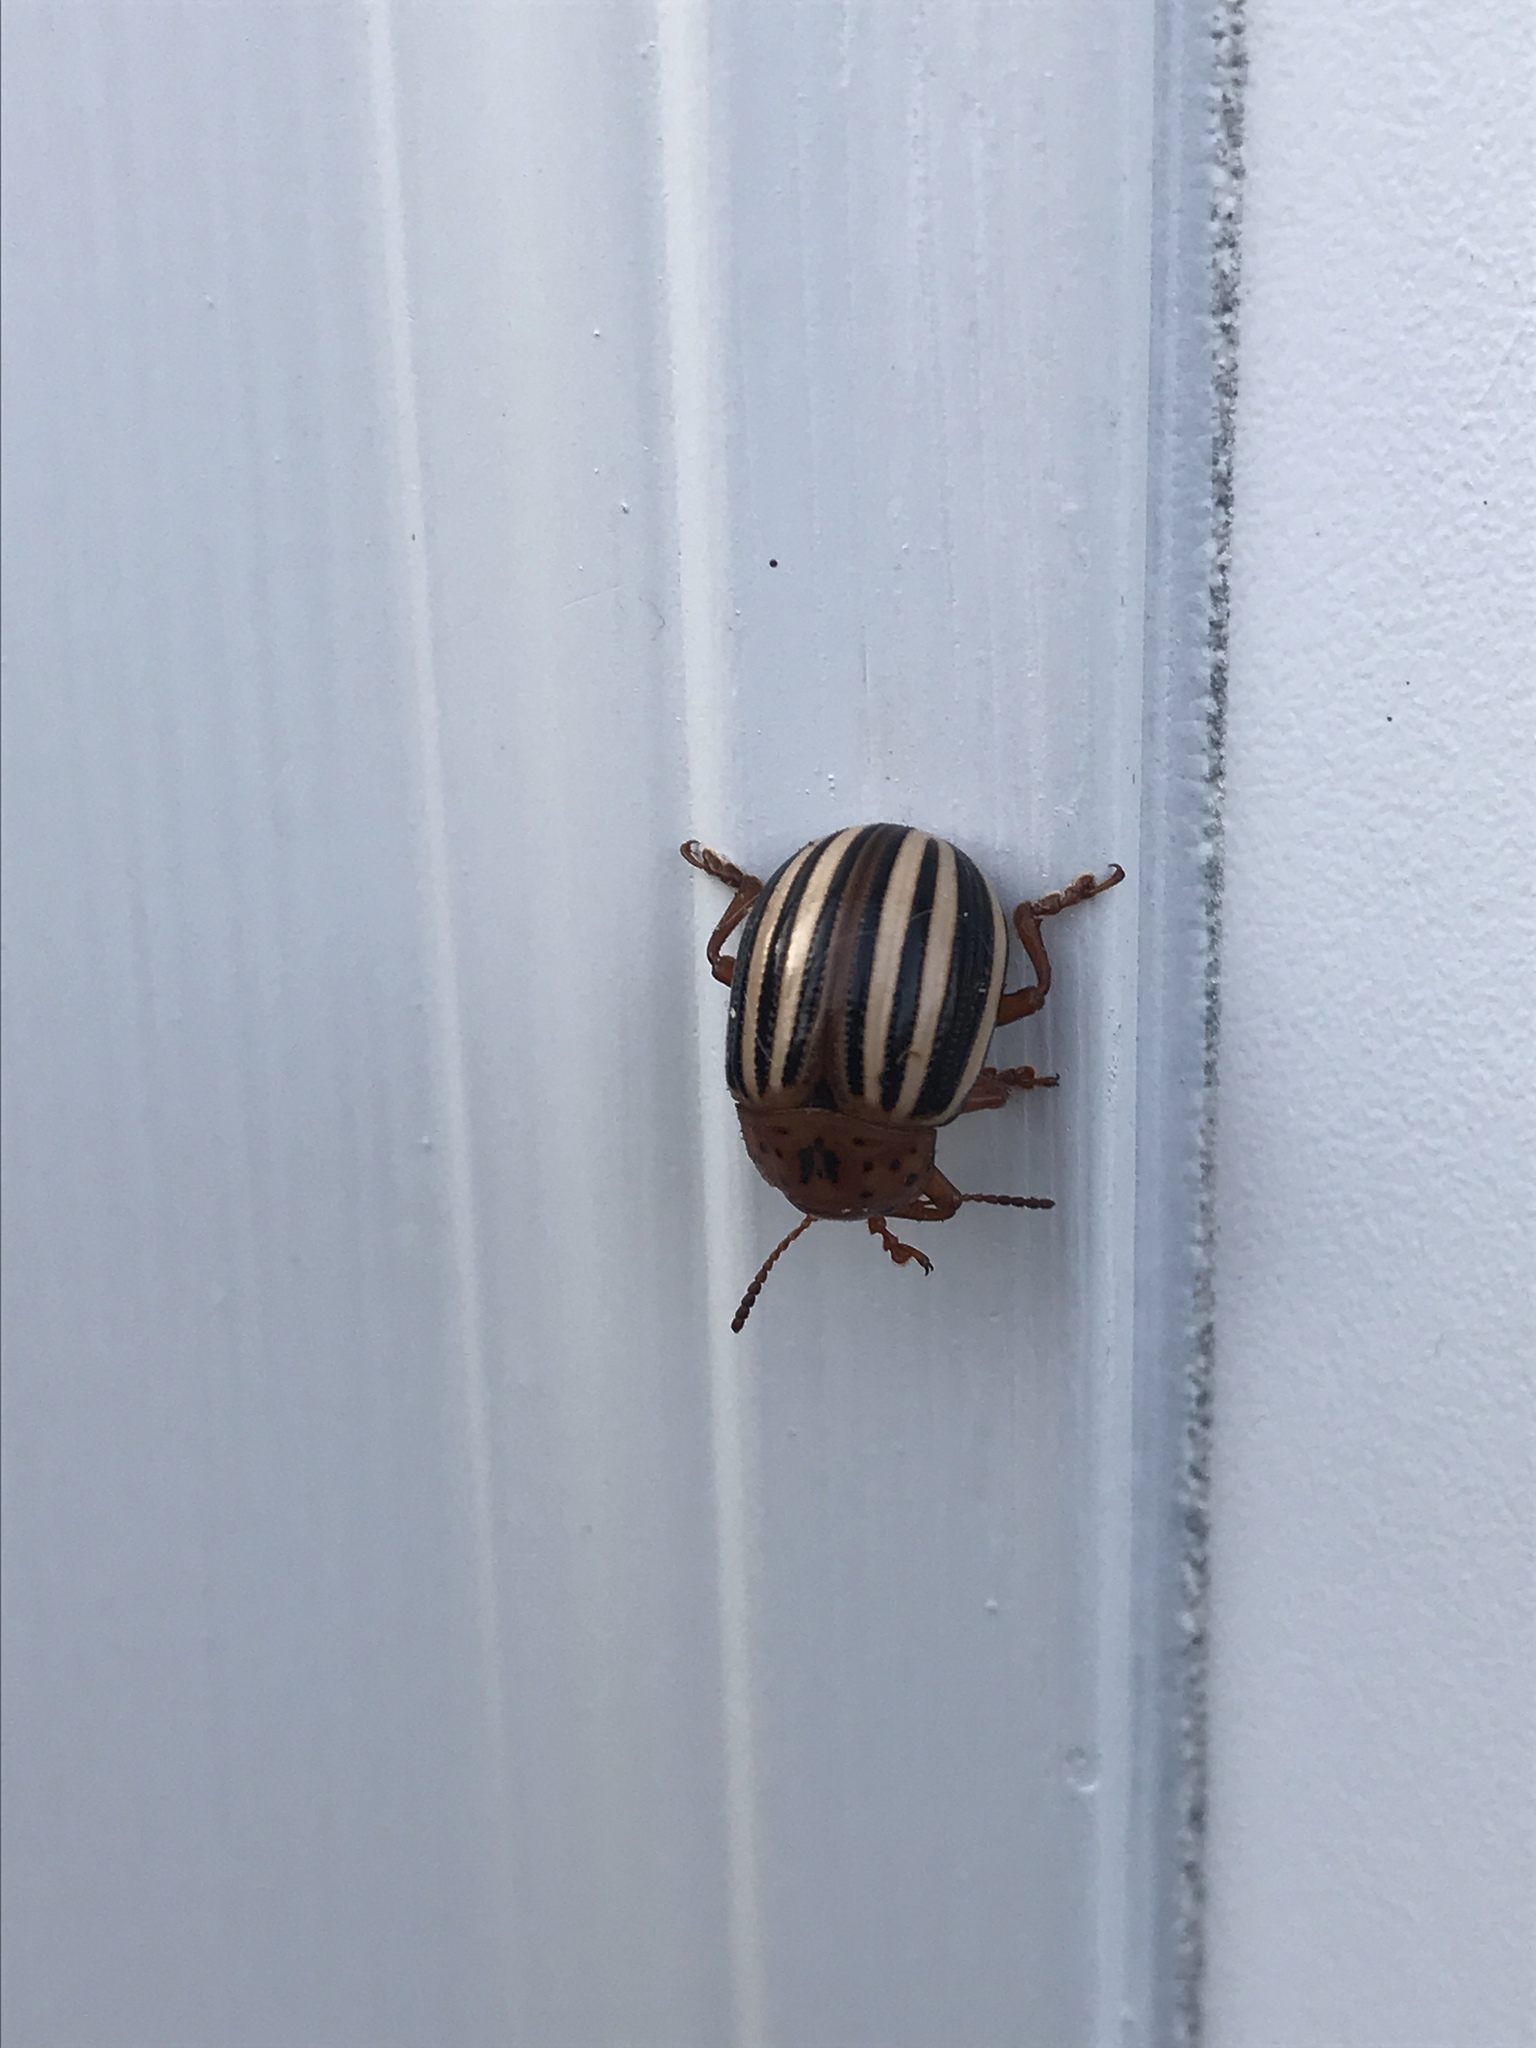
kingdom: Animalia
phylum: Arthropoda
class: Insecta
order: Coleoptera
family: Chrysomelidae
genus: Leptinotarsa
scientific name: Leptinotarsa juncta
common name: False potato beetle
